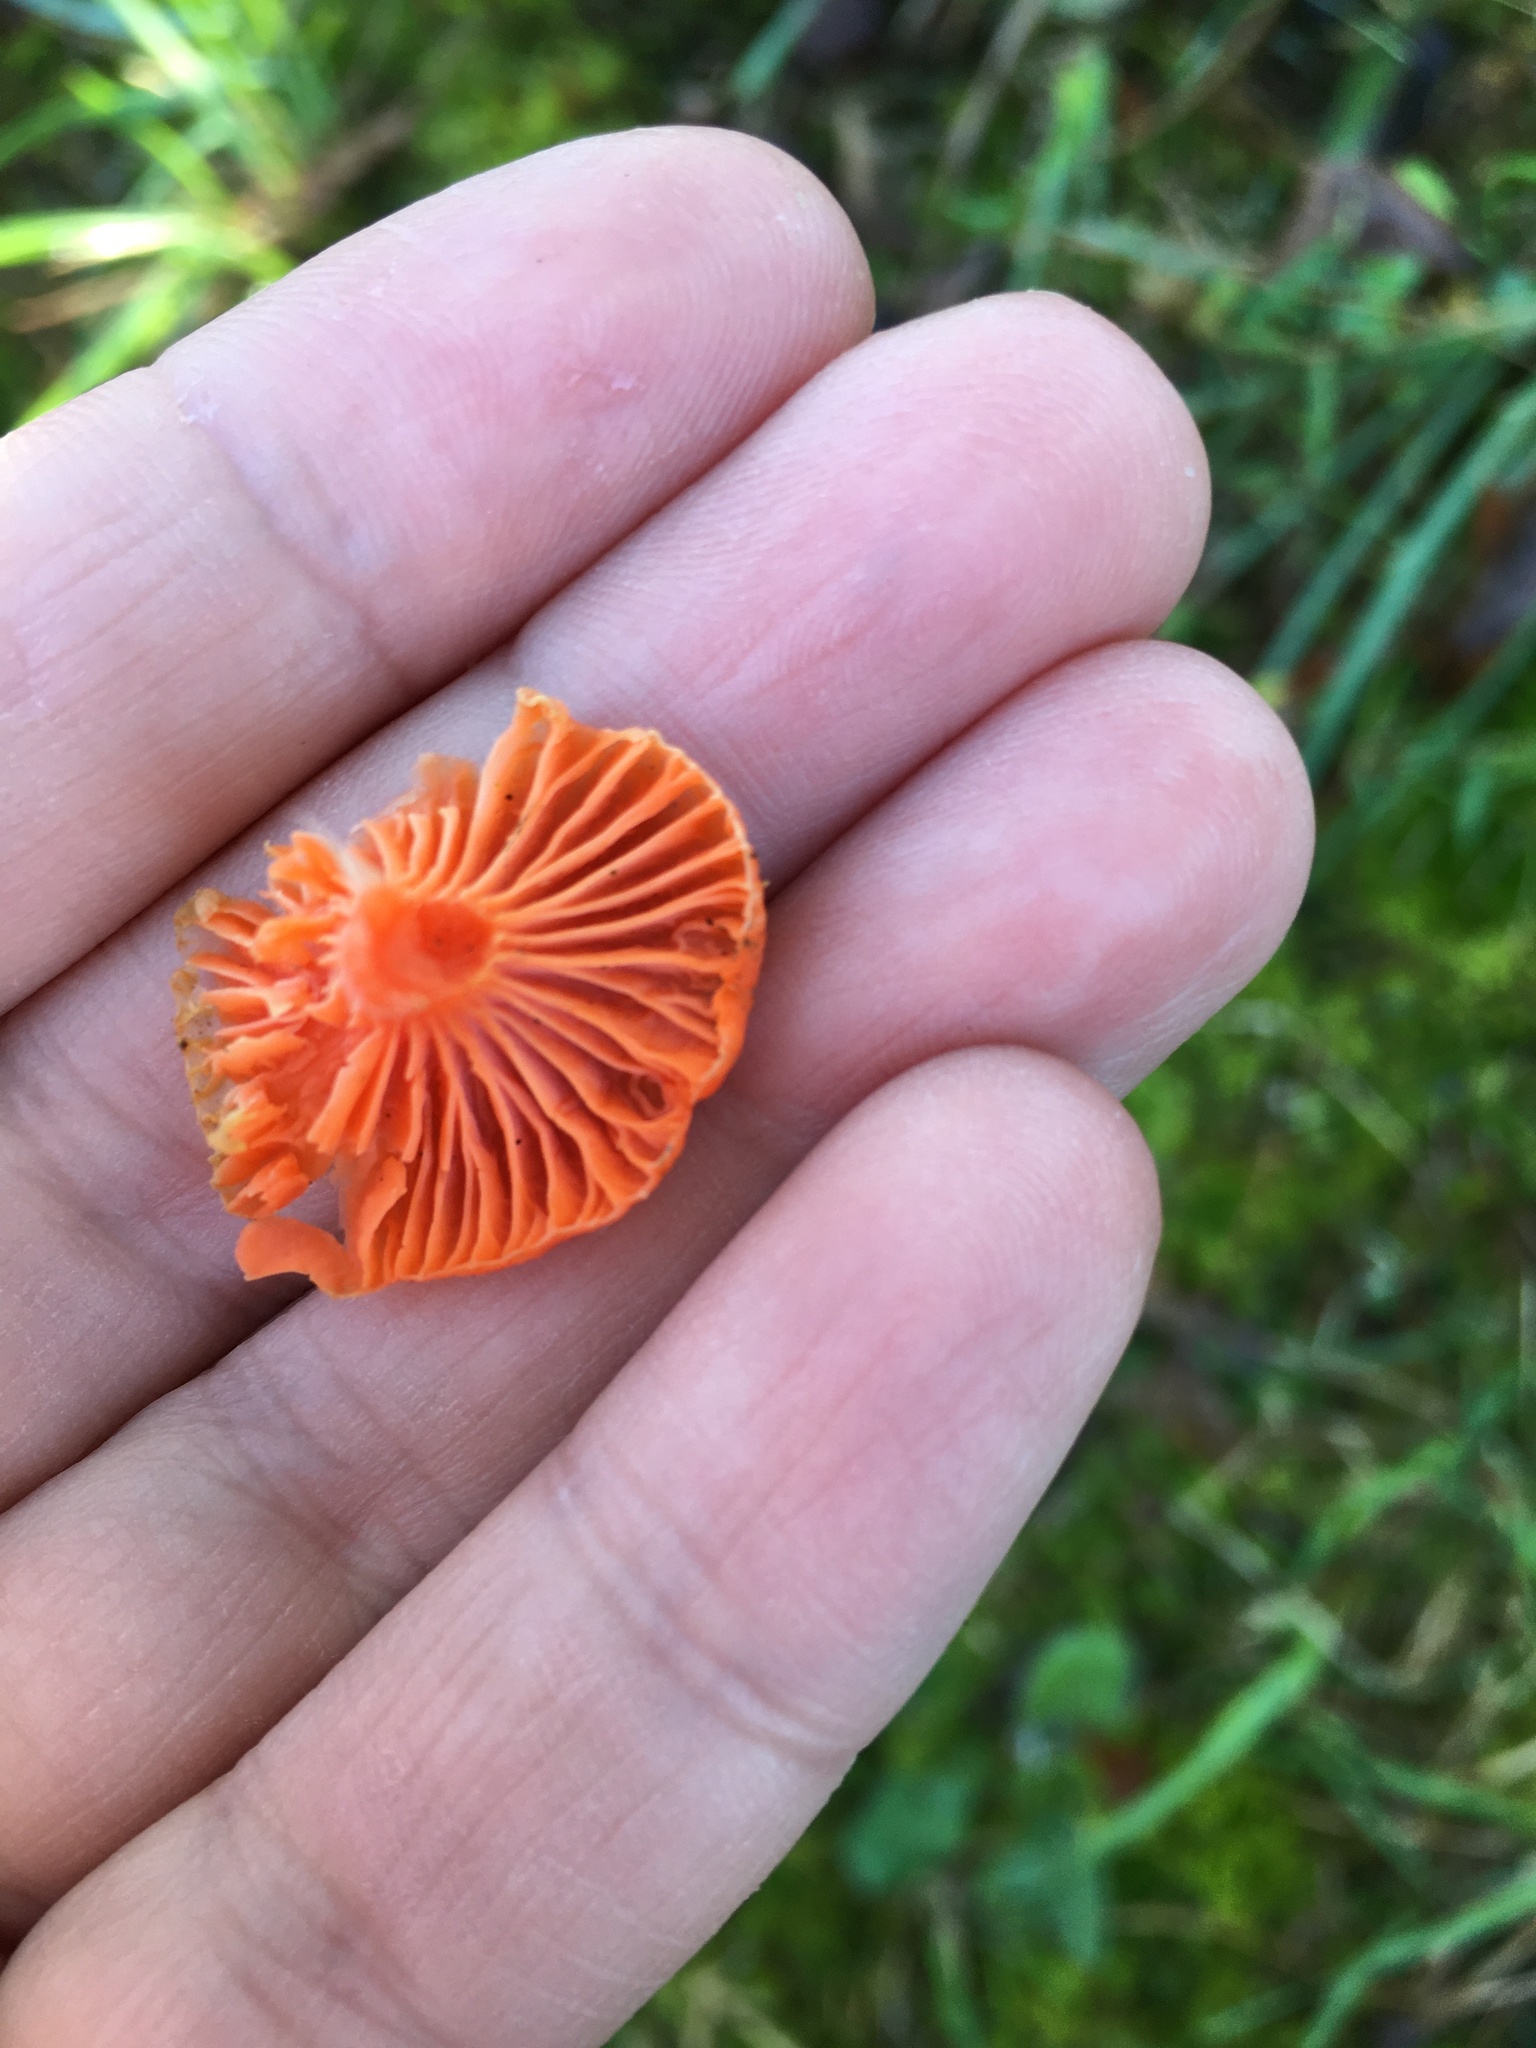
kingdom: Fungi
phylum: Basidiomycota
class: Agaricomycetes
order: Cantharellales
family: Hydnaceae
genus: Cantharellus
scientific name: Cantharellus cinnabarinus
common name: Cinnabar chanterelle
